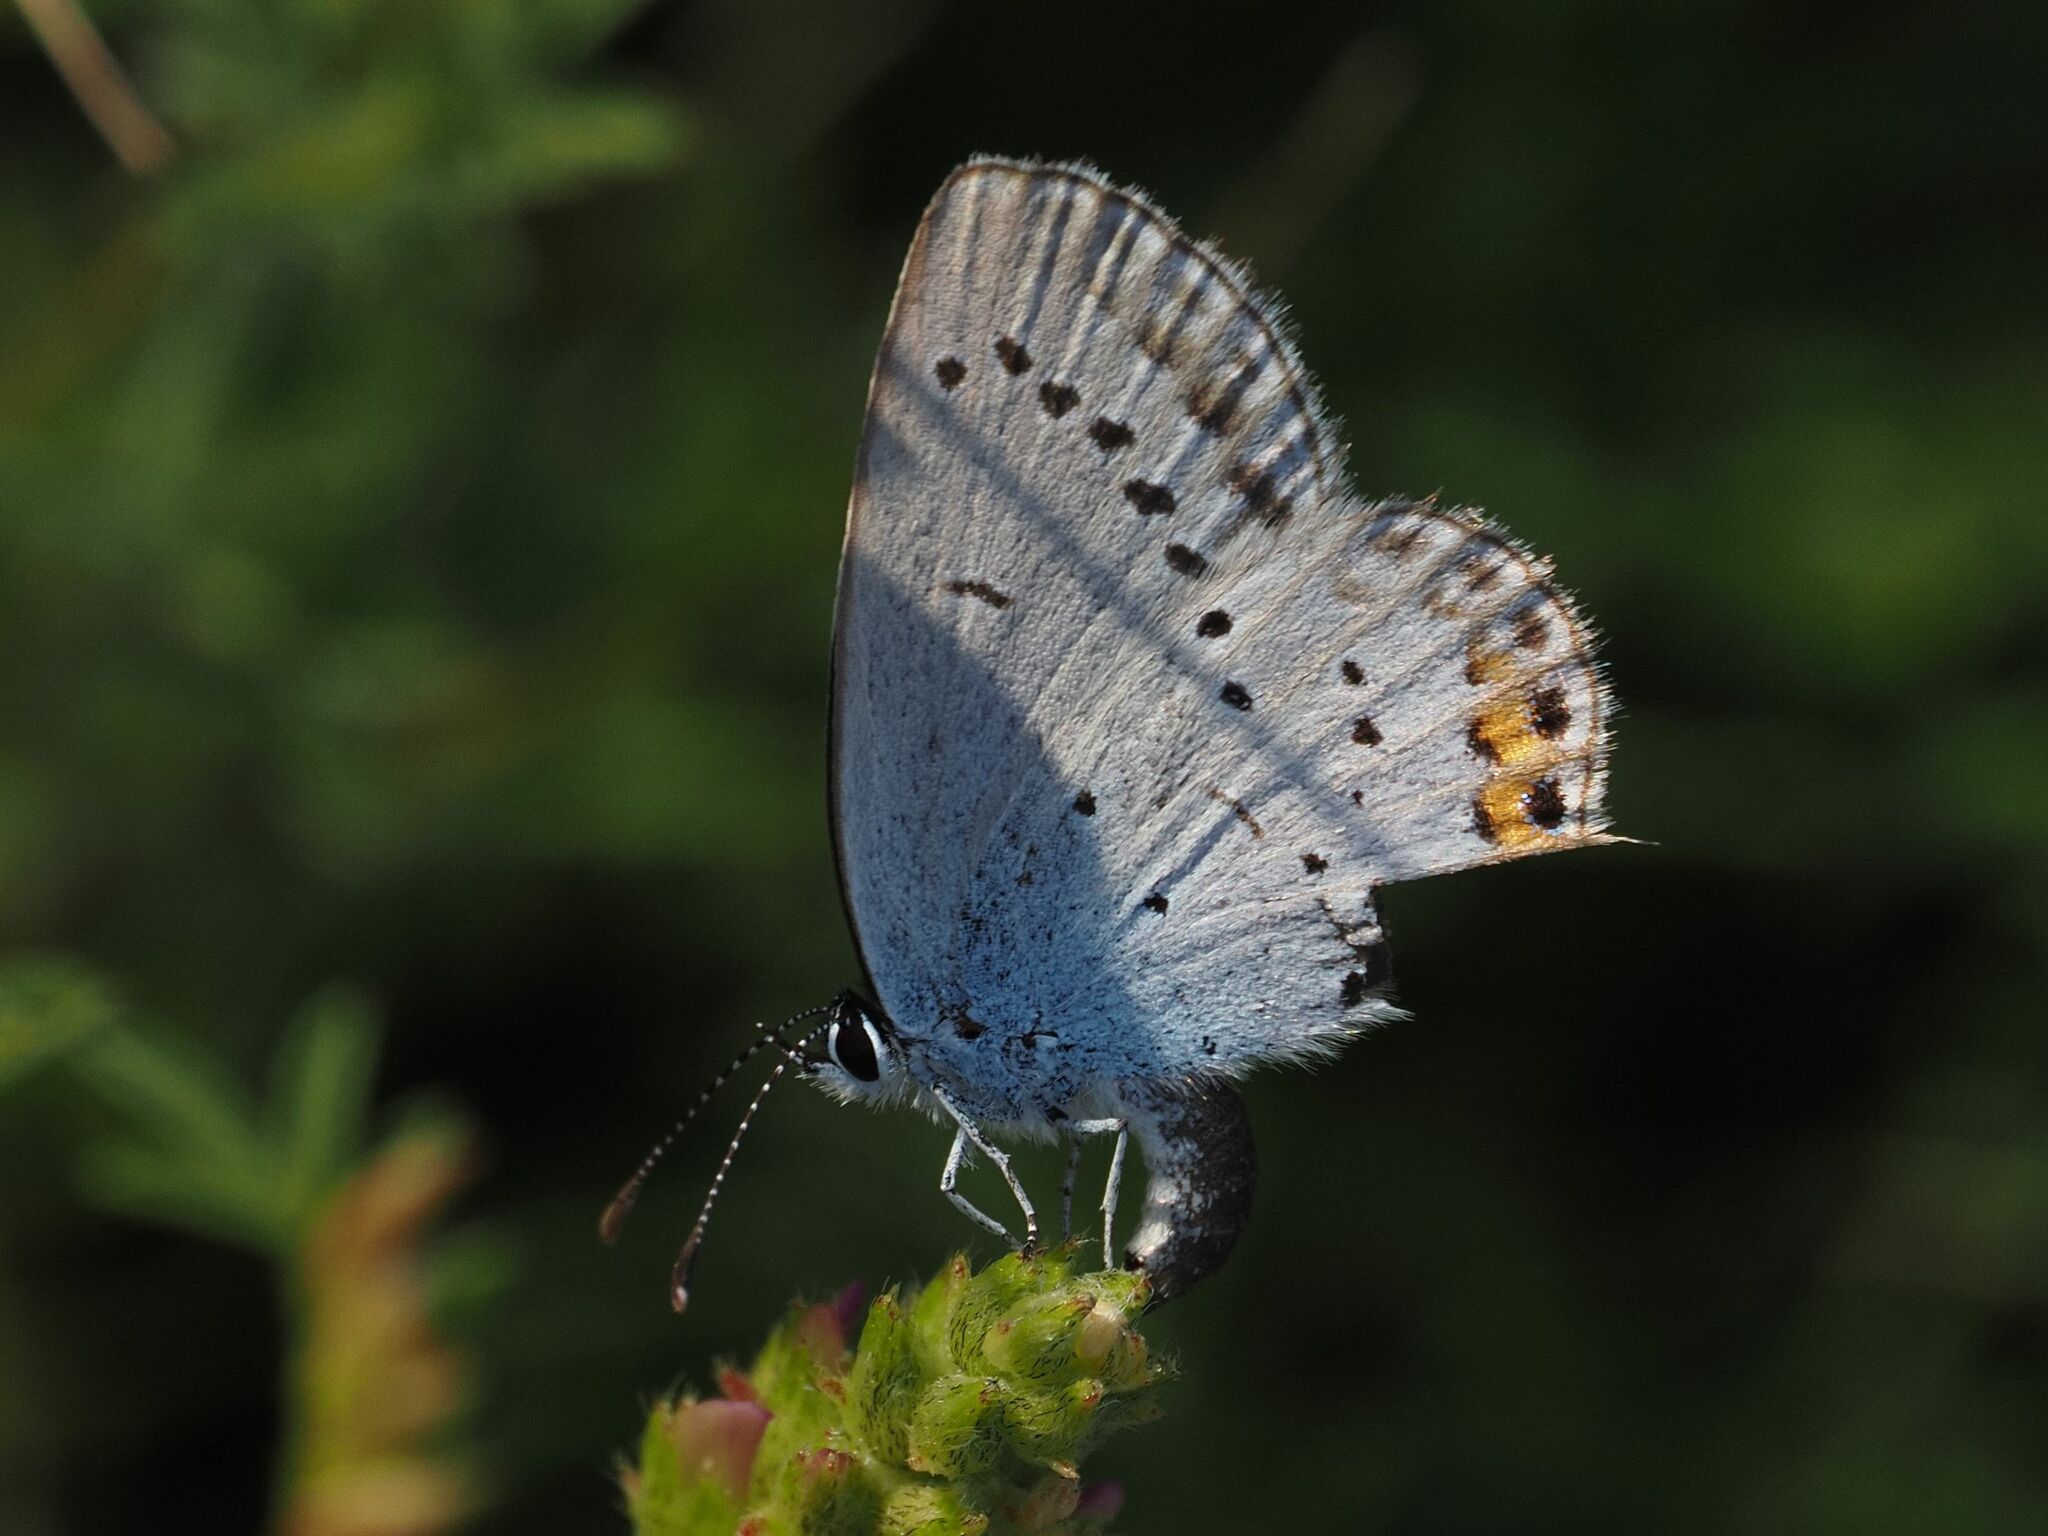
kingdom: Animalia
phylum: Arthropoda
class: Insecta
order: Lepidoptera
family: Lycaenidae
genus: Elkalyce
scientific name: Elkalyce argiades
